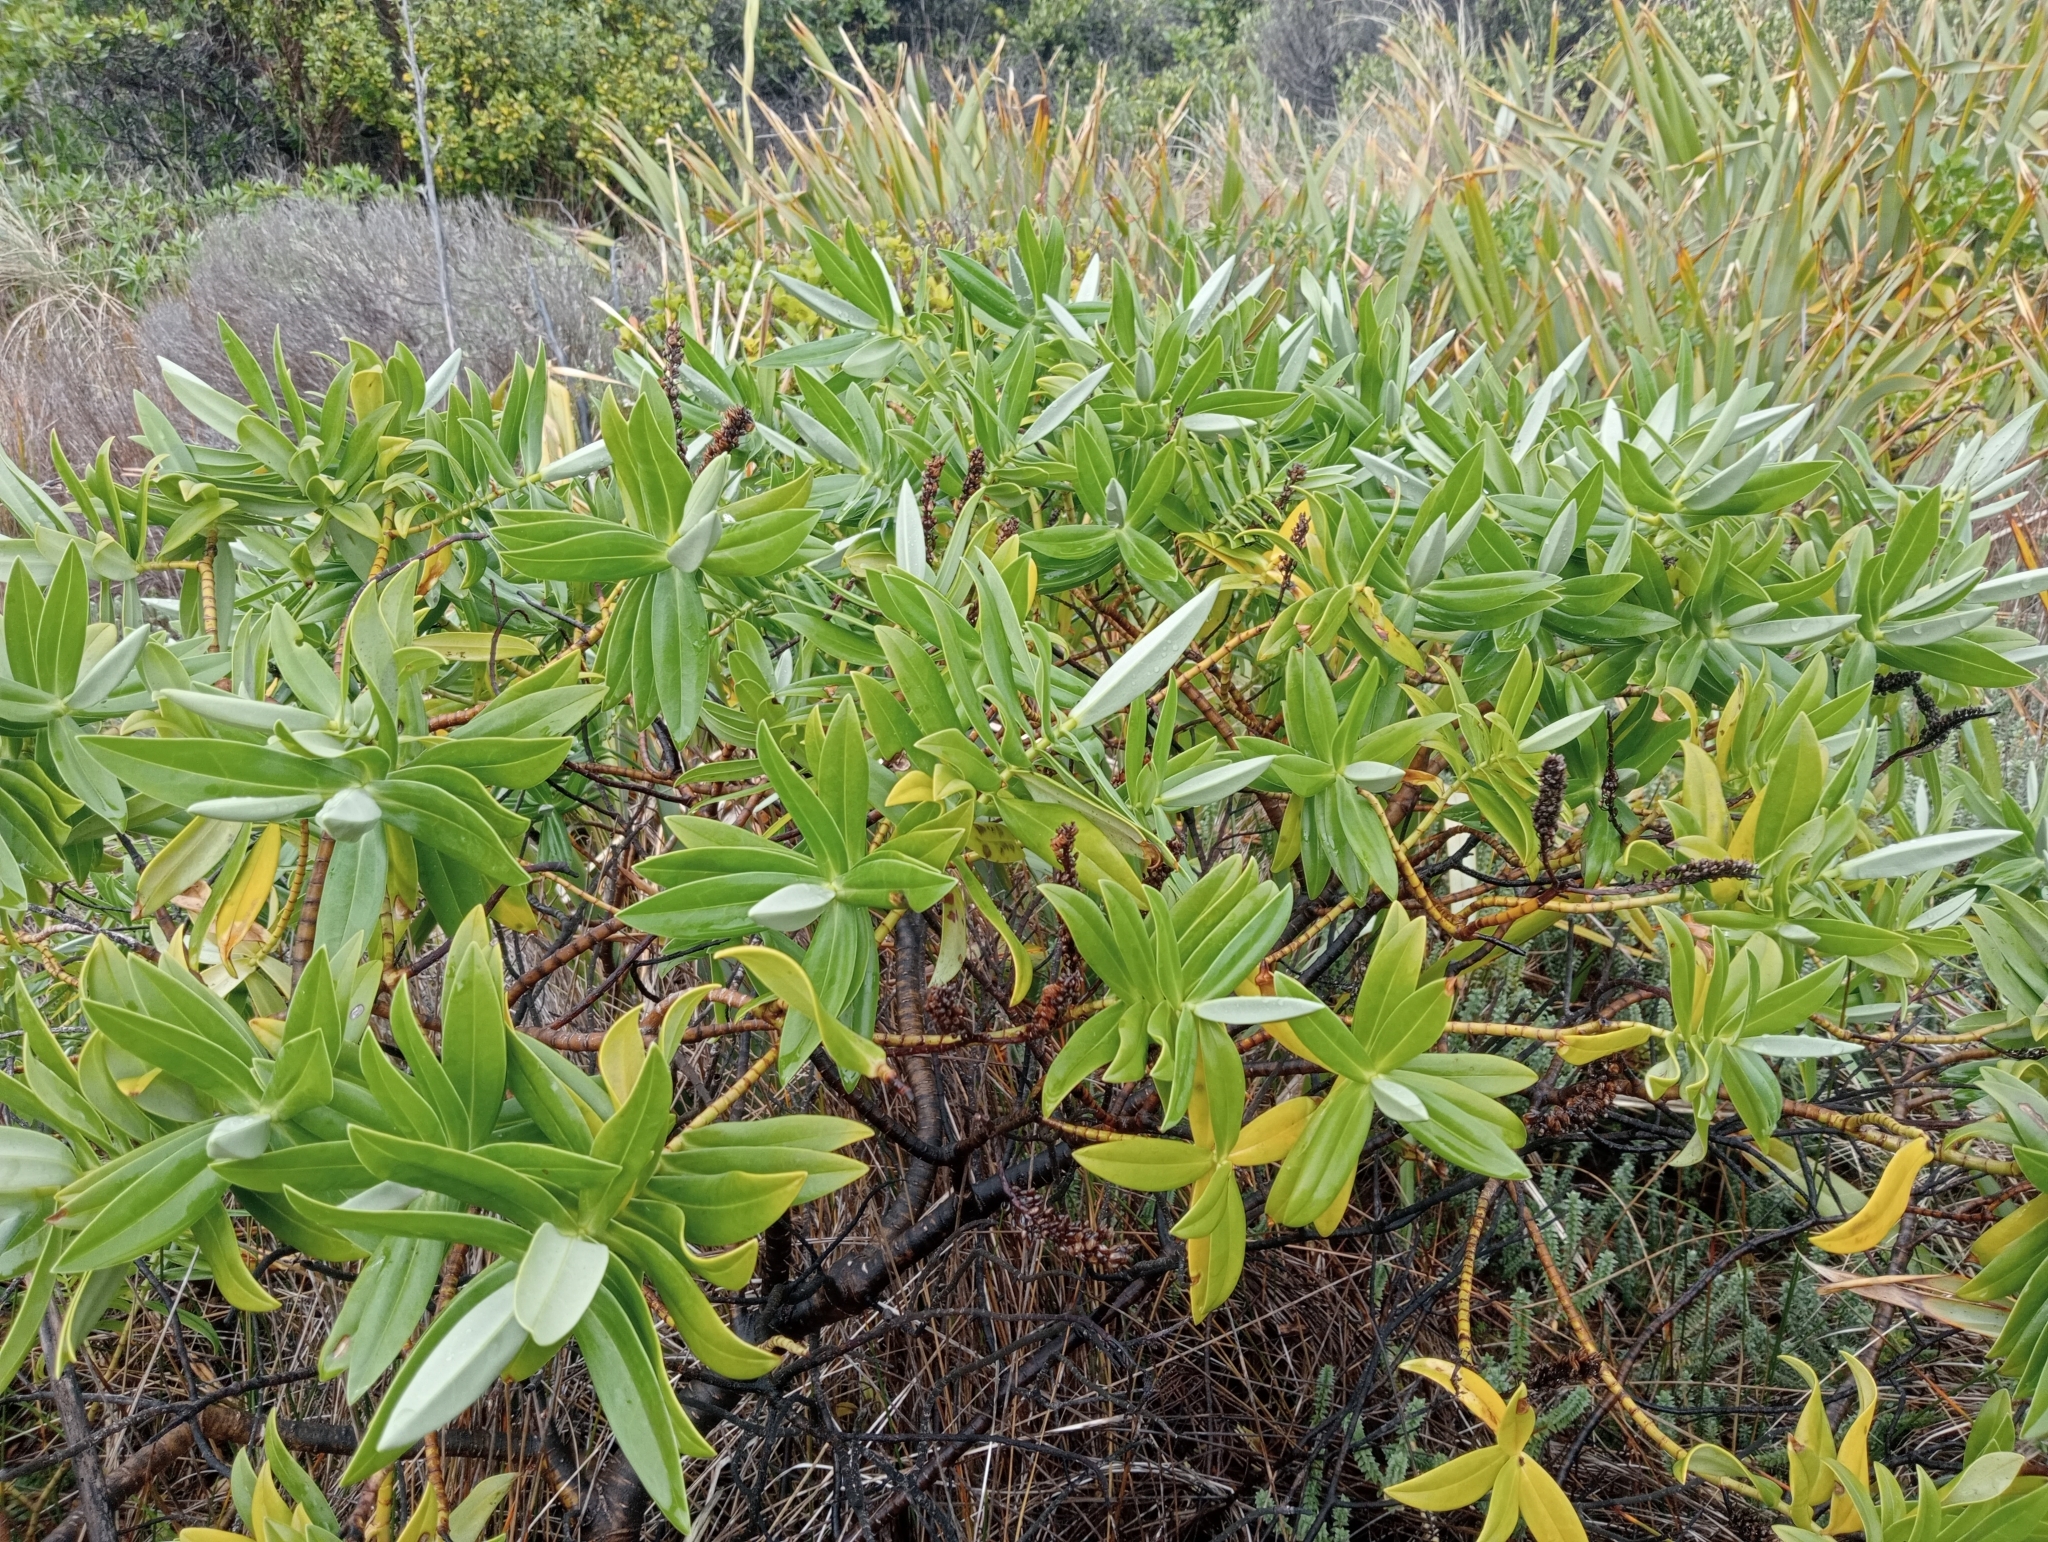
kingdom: Plantae
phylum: Tracheophyta
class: Magnoliopsida
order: Lamiales
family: Plantaginaceae
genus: Veronica
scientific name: Veronica dieffenbachii
